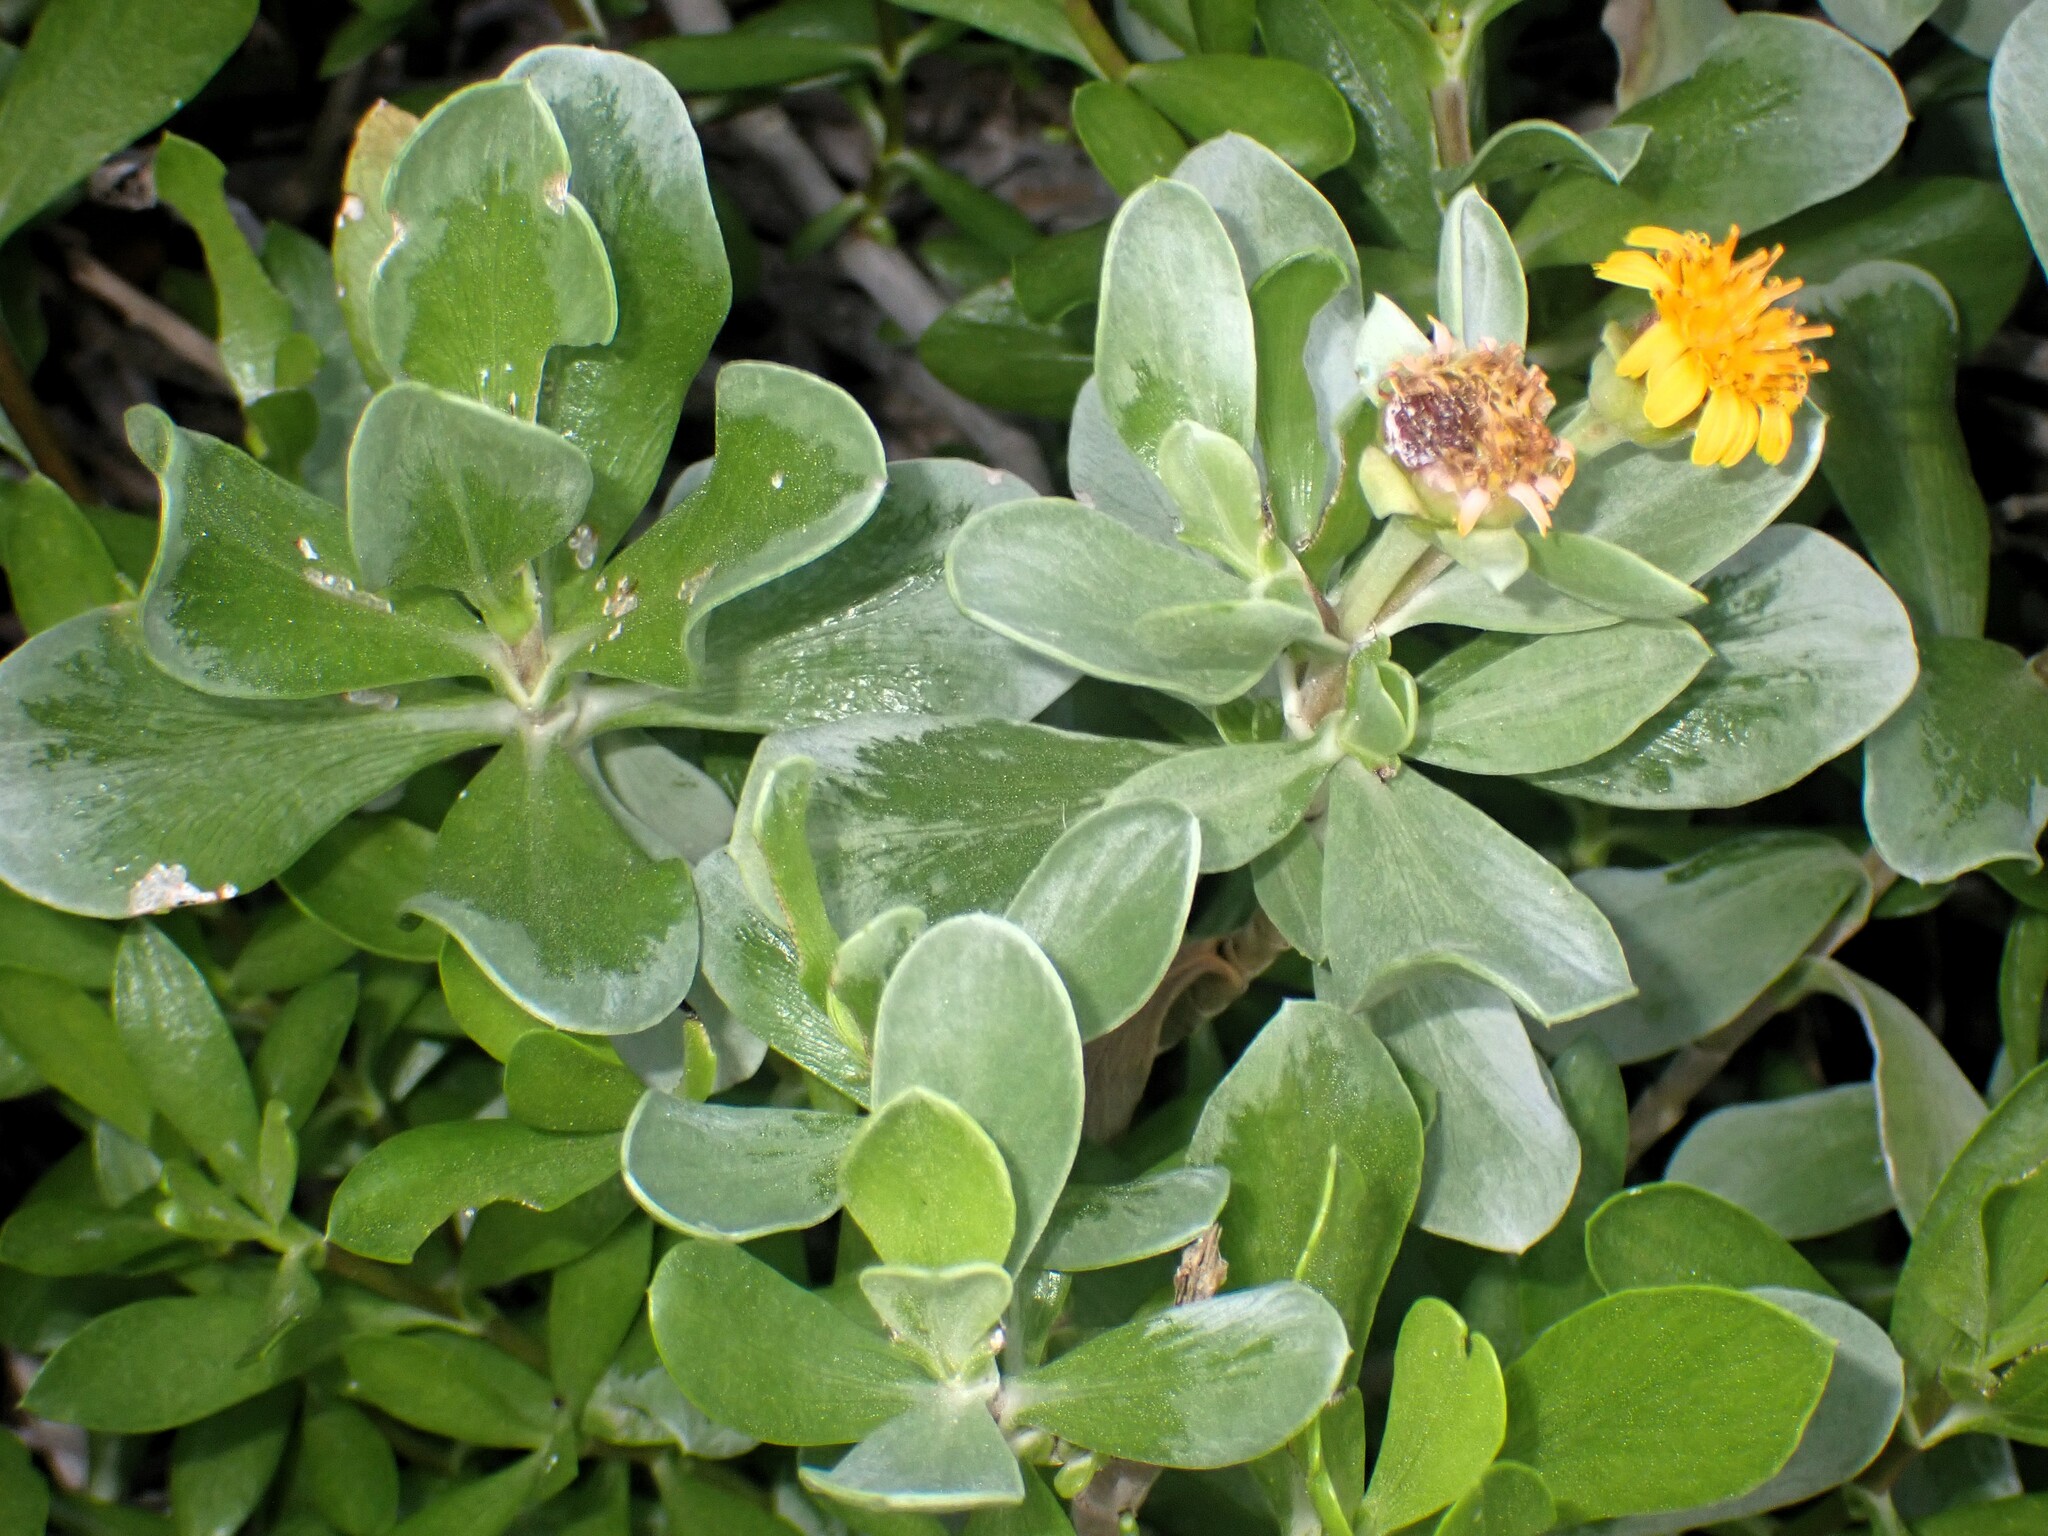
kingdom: Plantae
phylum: Tracheophyta
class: Magnoliopsida
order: Asterales
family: Asteraceae
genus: Borrichia
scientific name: Borrichia arborescens
